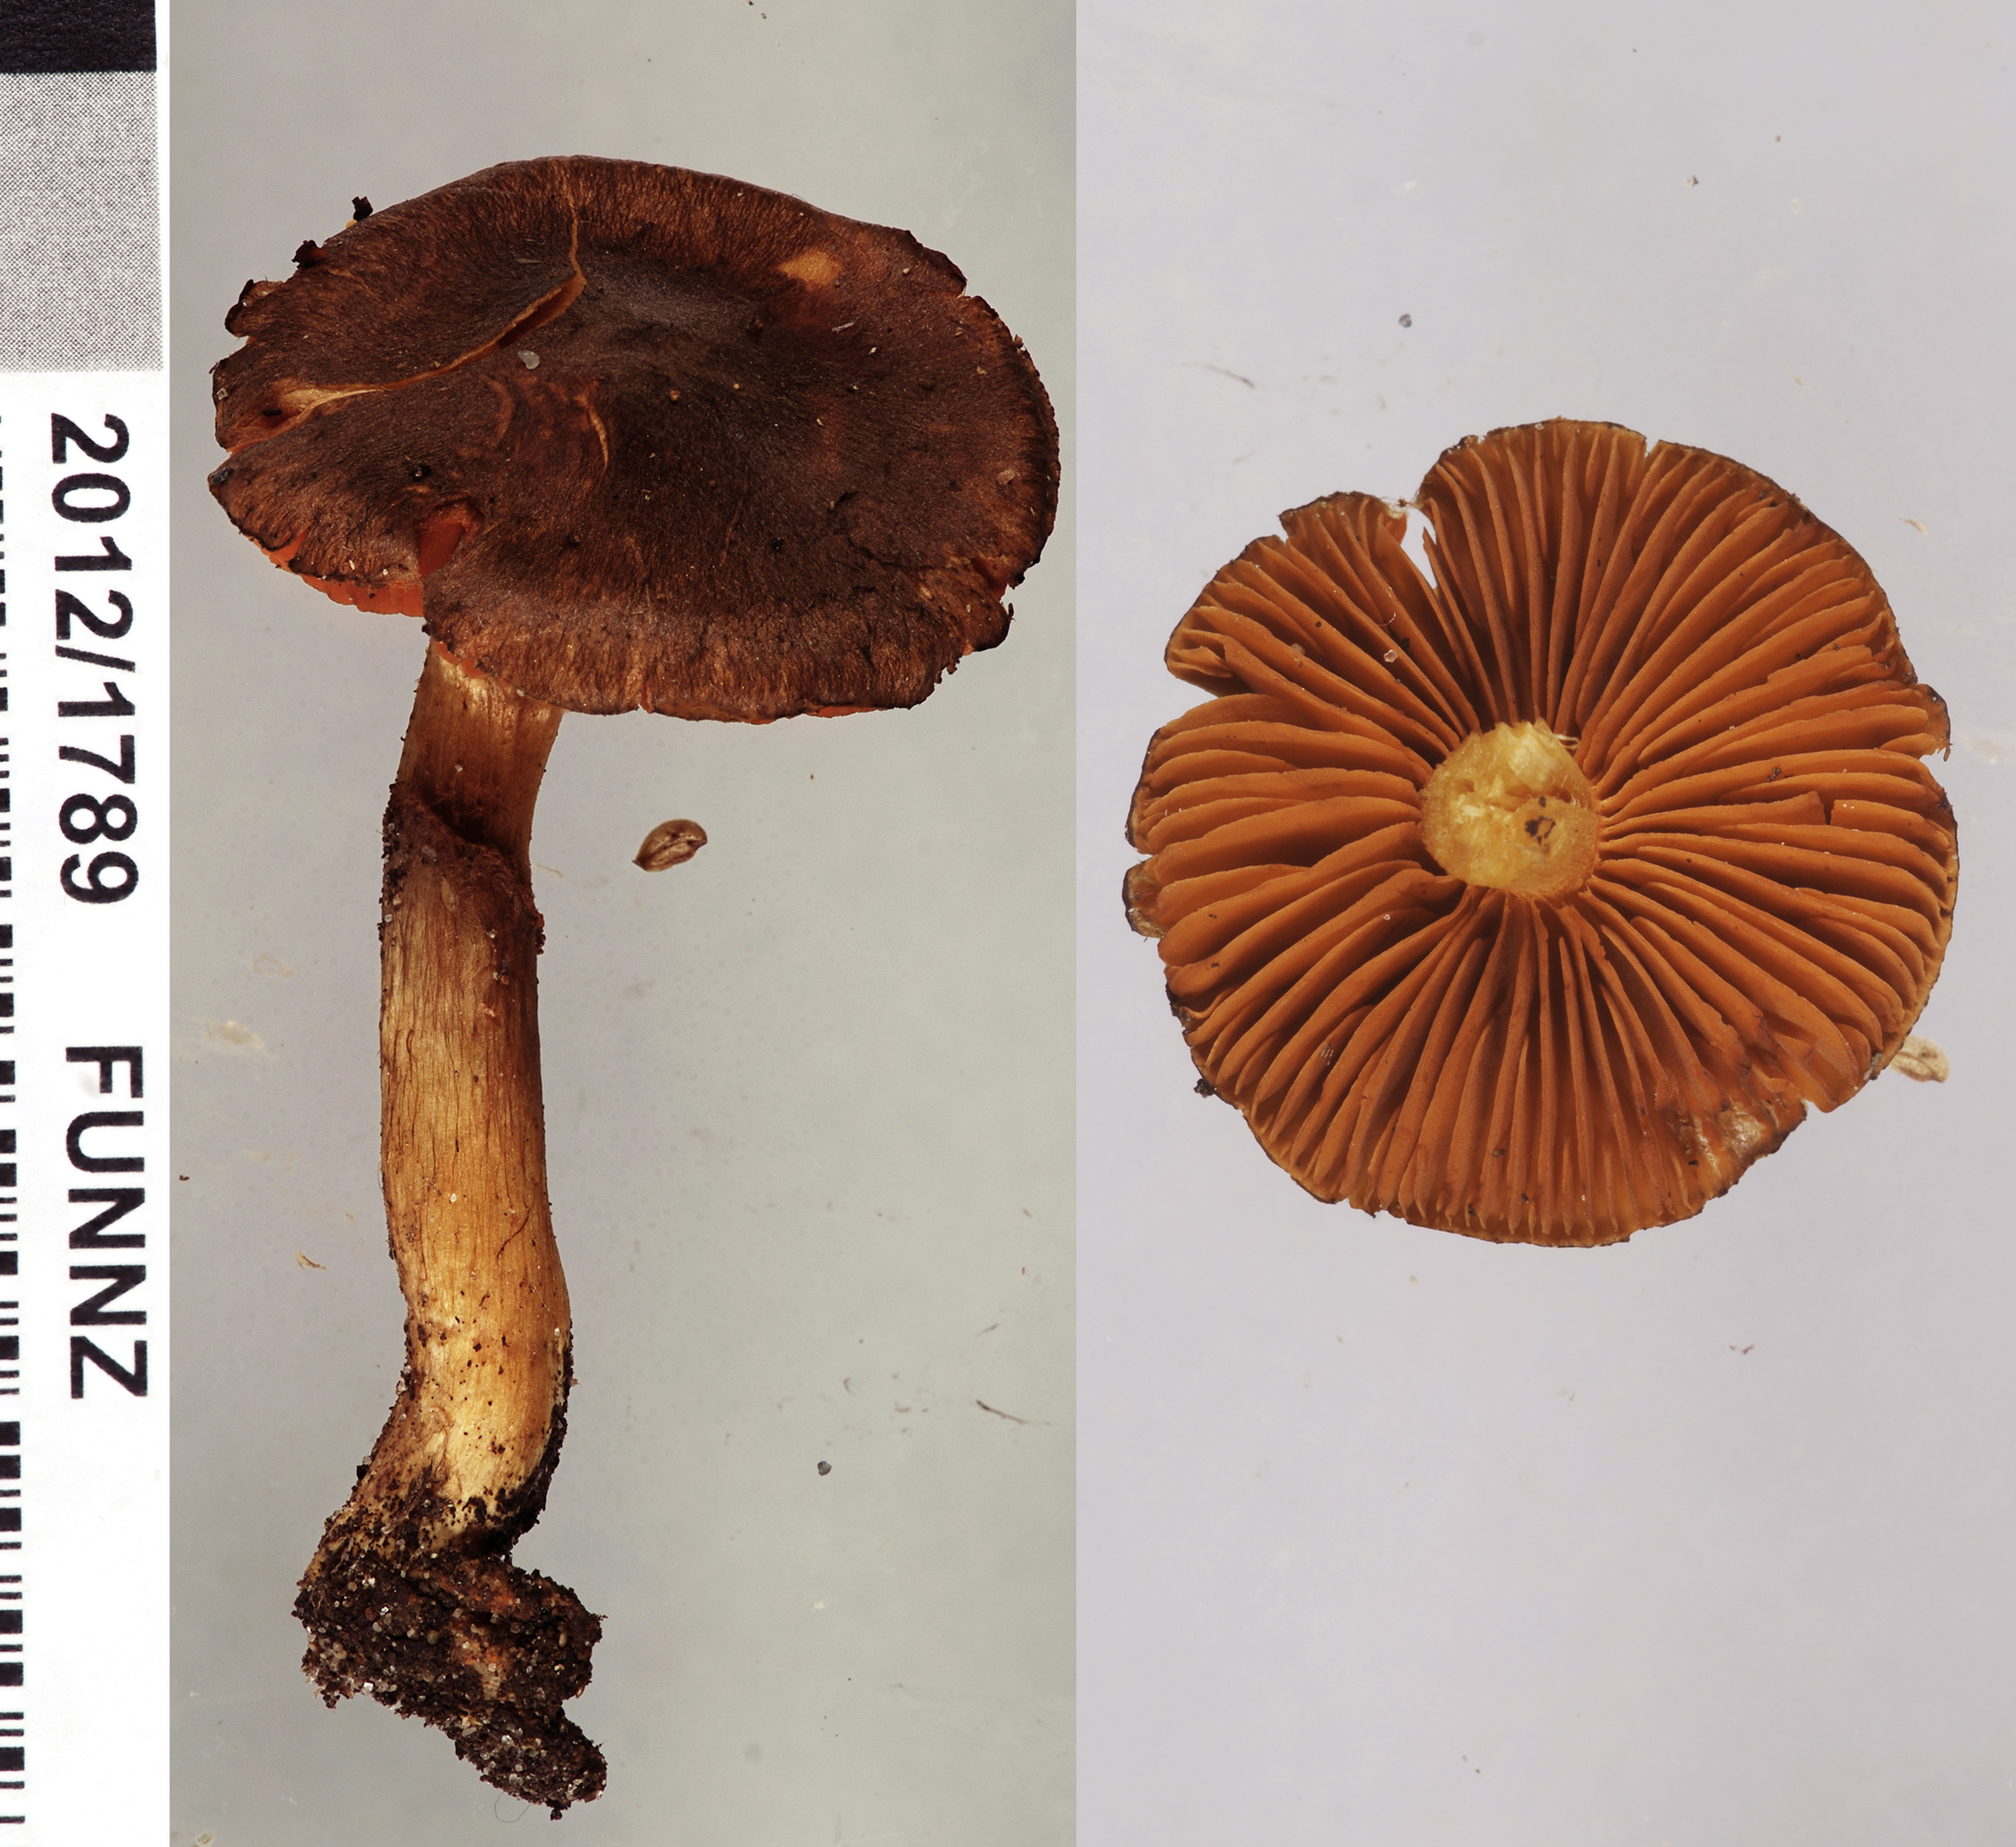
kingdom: Fungi
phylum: Basidiomycota
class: Agaricomycetes
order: Agaricales
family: Cortinariaceae
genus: Cortinarius
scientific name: Cortinarius persplendidus
